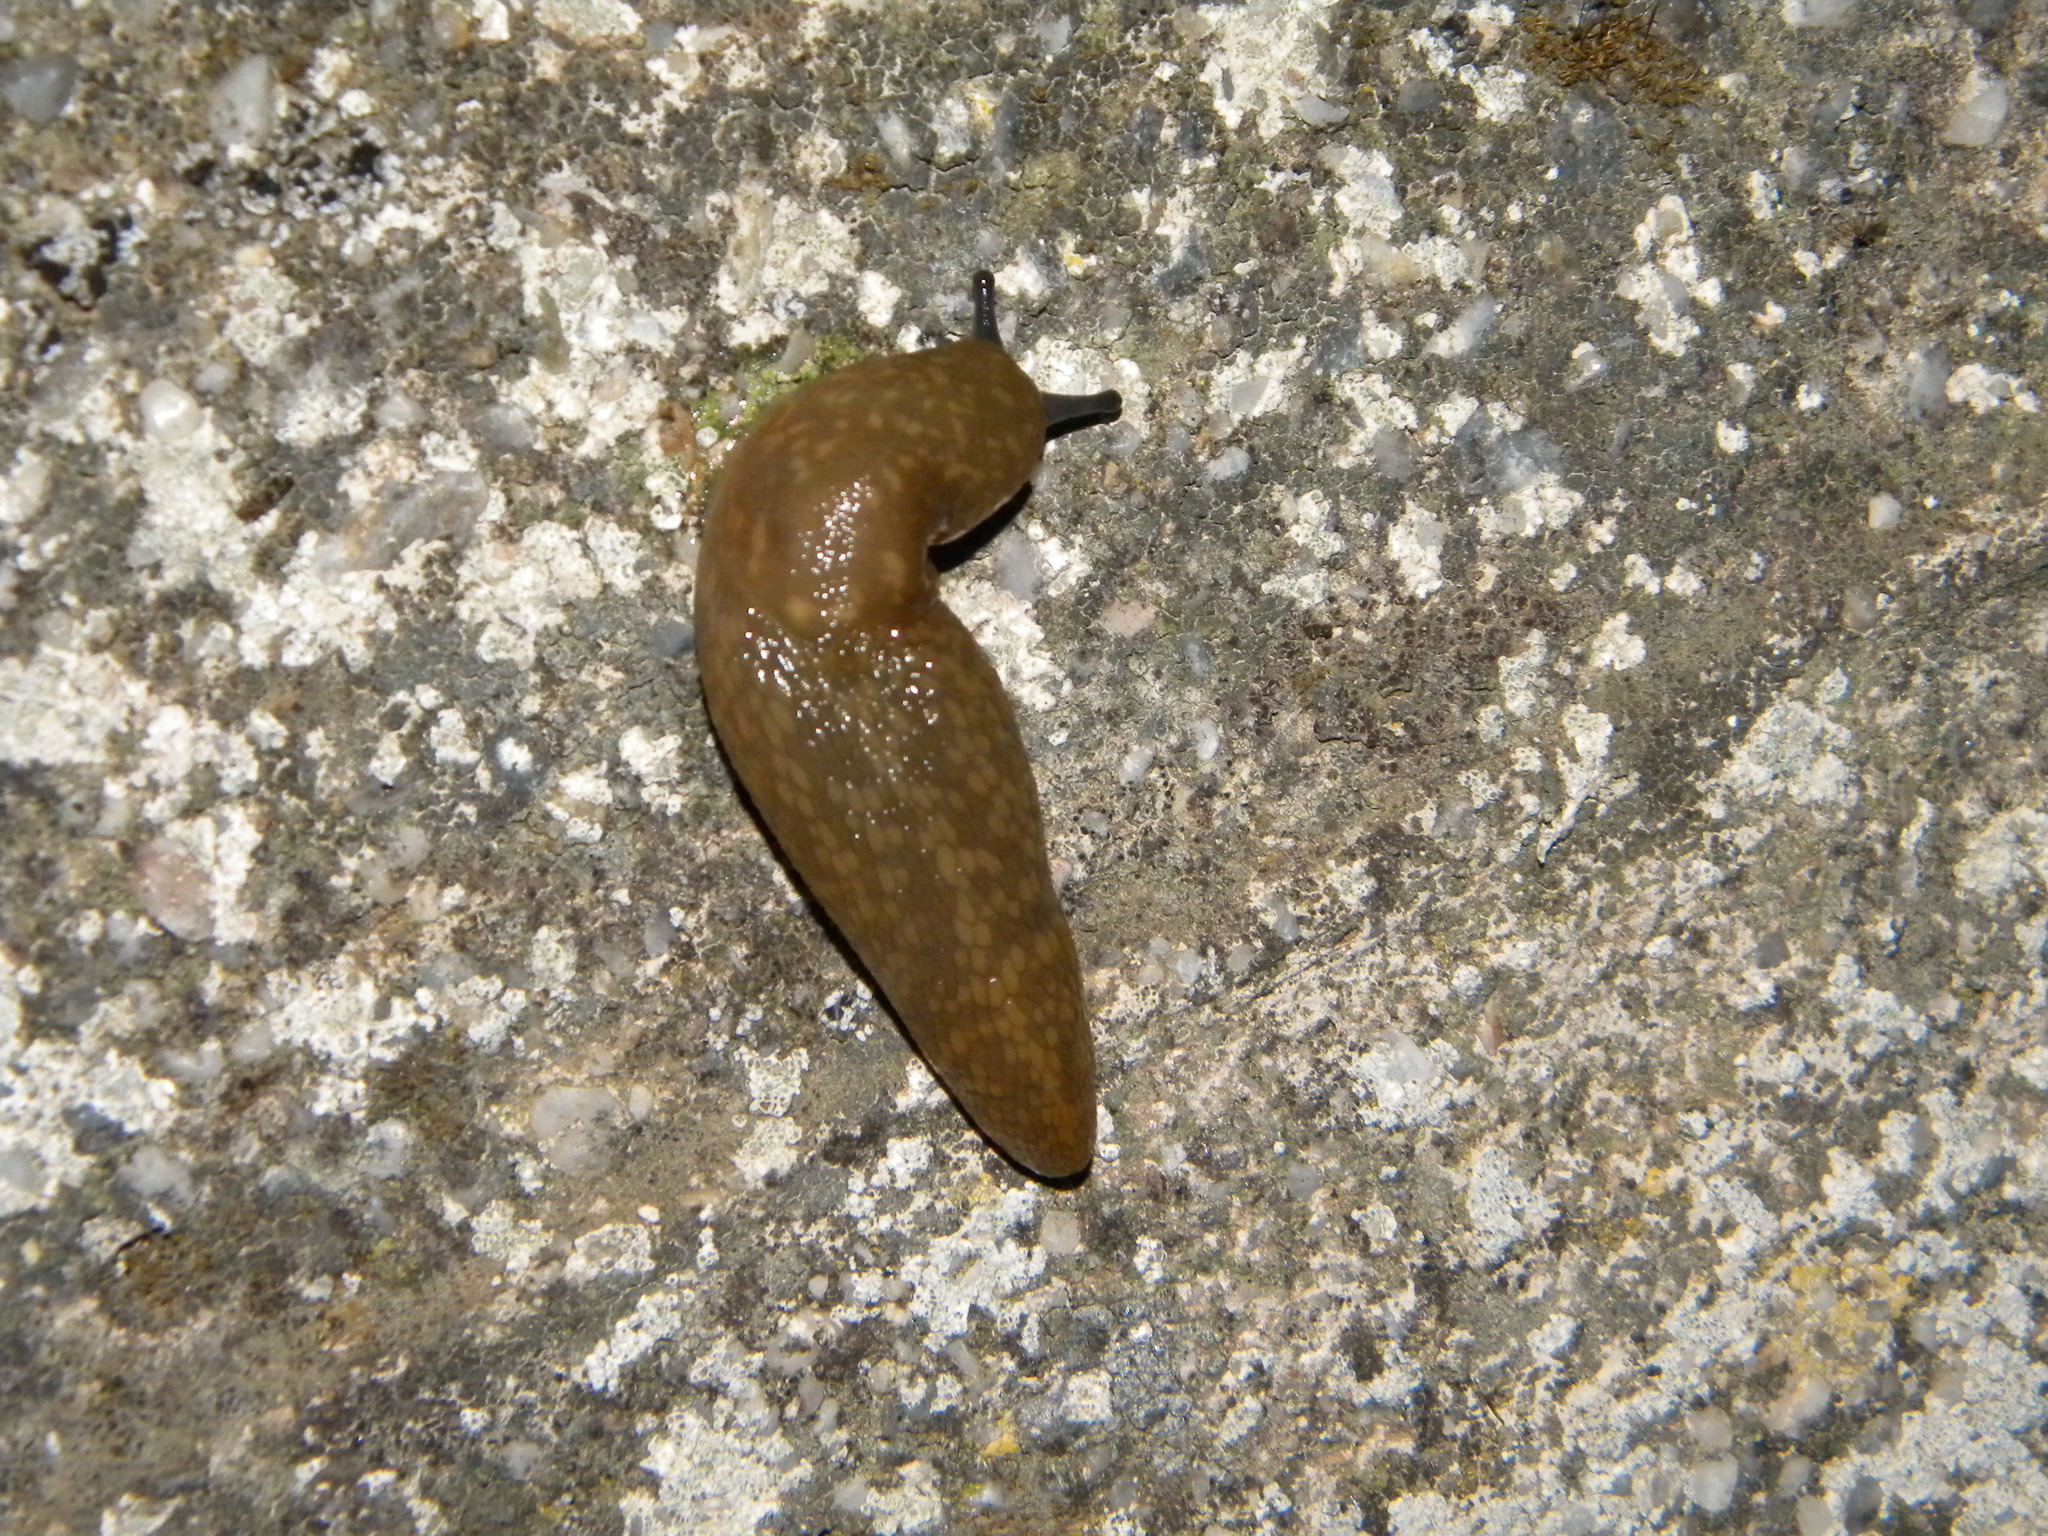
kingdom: Animalia
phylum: Mollusca
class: Gastropoda
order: Stylommatophora
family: Limacidae
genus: Limacus
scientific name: Limacus flavus
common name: Yellow gardenslug
